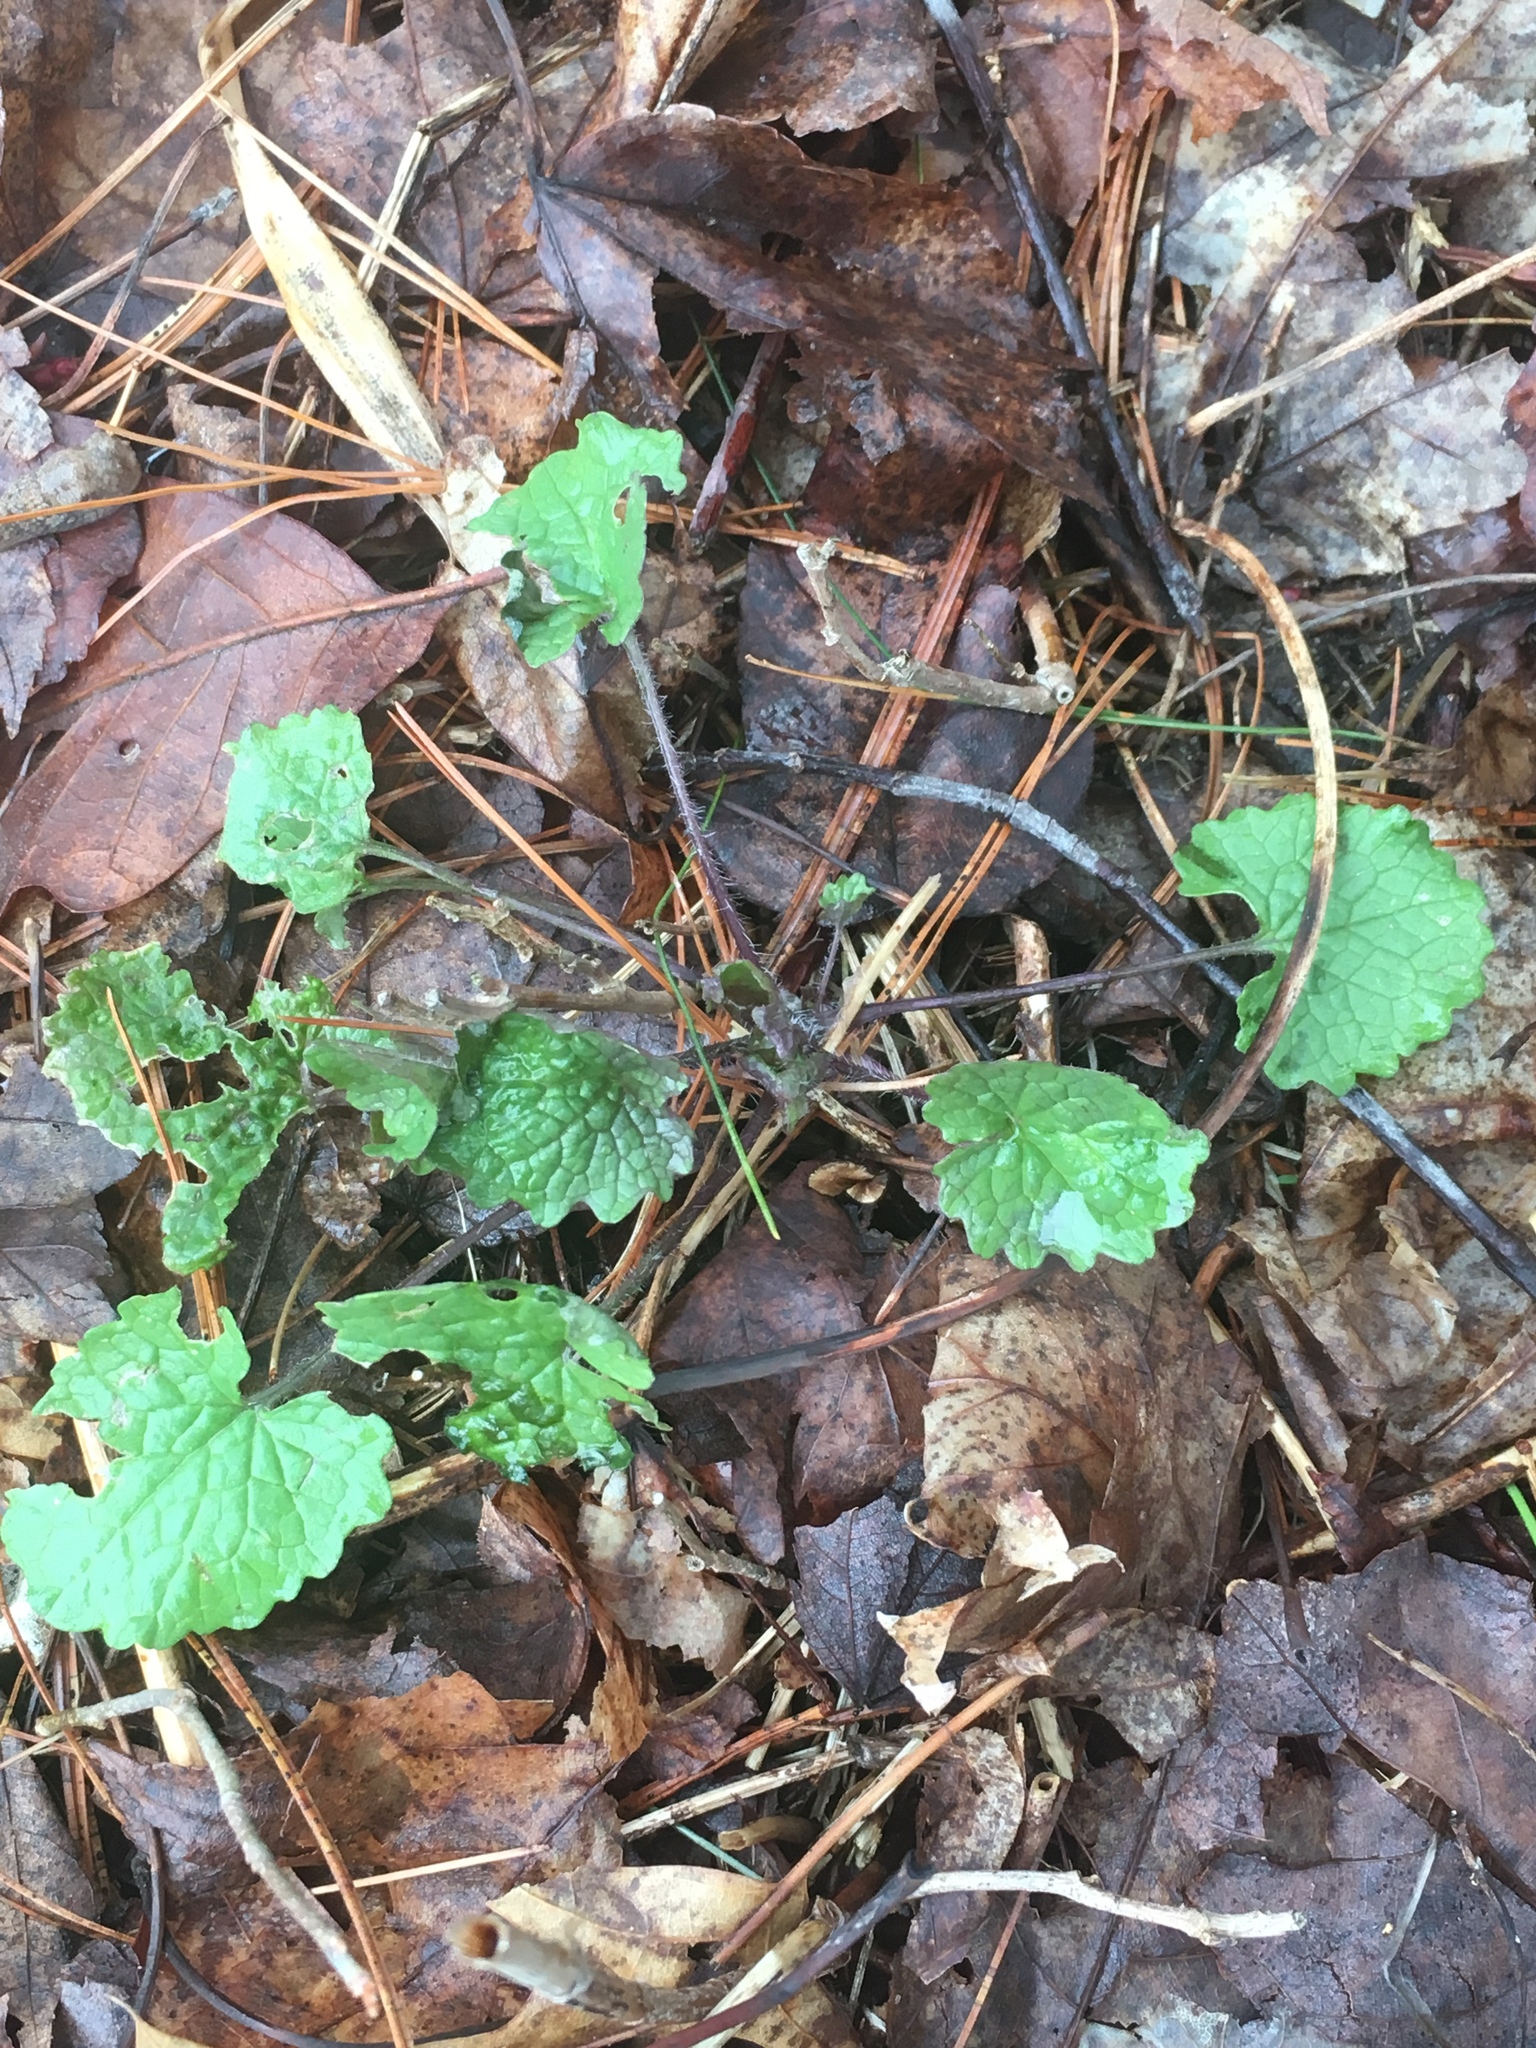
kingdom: Plantae
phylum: Tracheophyta
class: Magnoliopsida
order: Brassicales
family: Brassicaceae
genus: Alliaria
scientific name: Alliaria petiolata
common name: Garlic mustard
